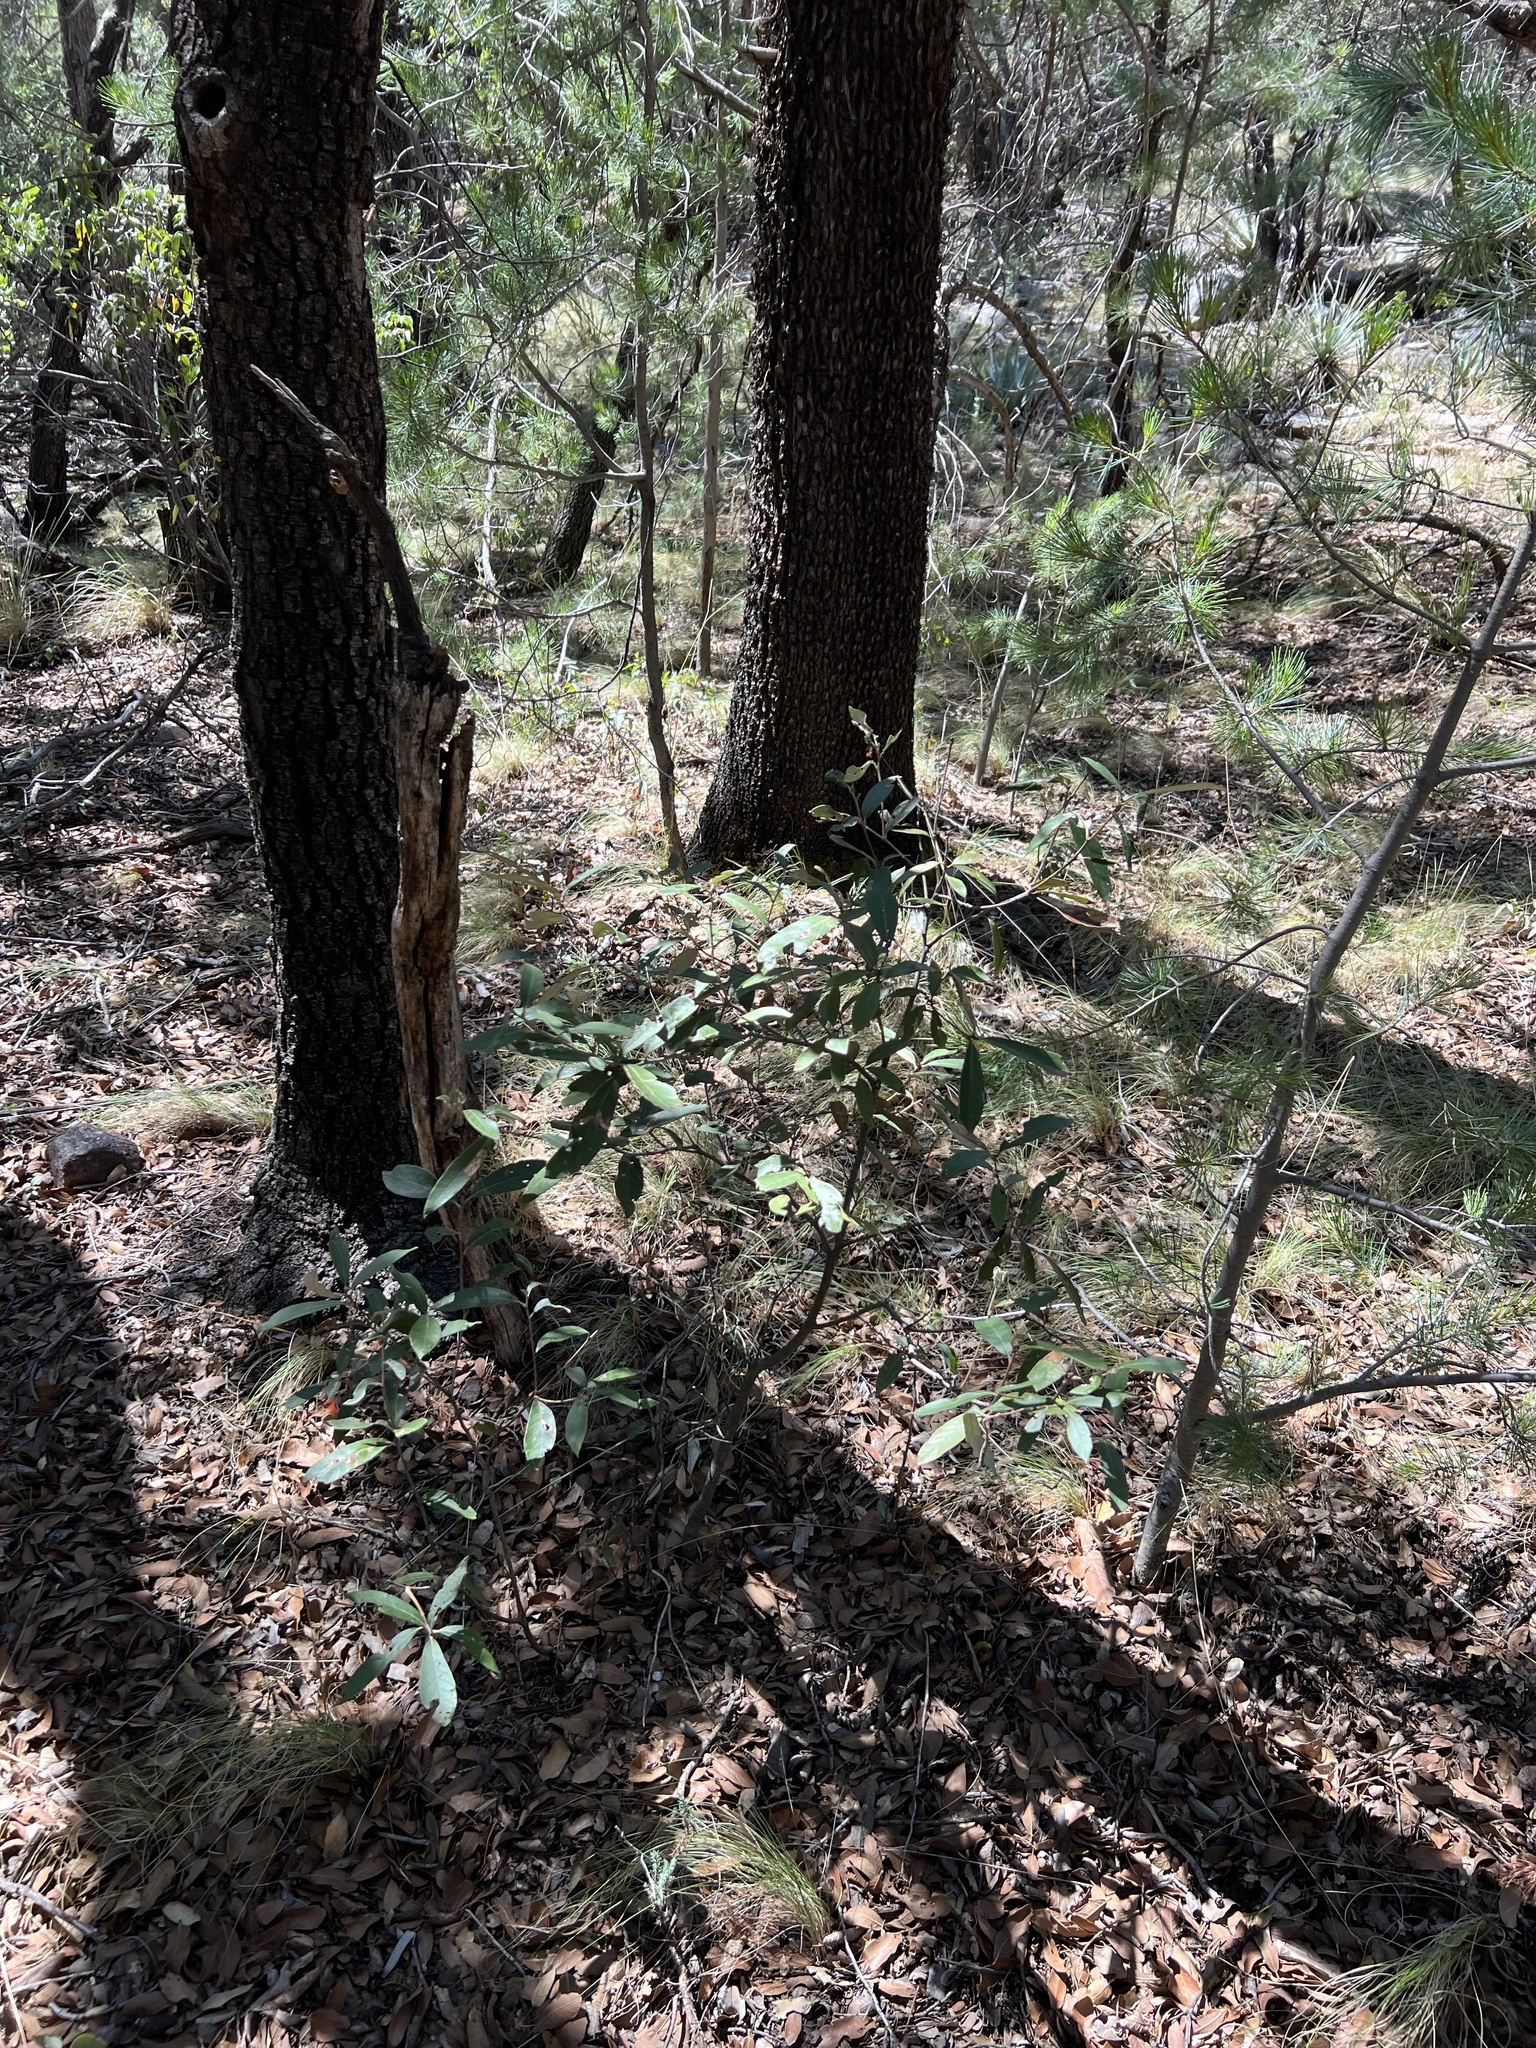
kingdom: Plantae
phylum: Tracheophyta
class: Magnoliopsida
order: Fagales
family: Fagaceae
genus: Quercus
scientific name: Quercus hypoleucoides
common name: Silverleaf oak
